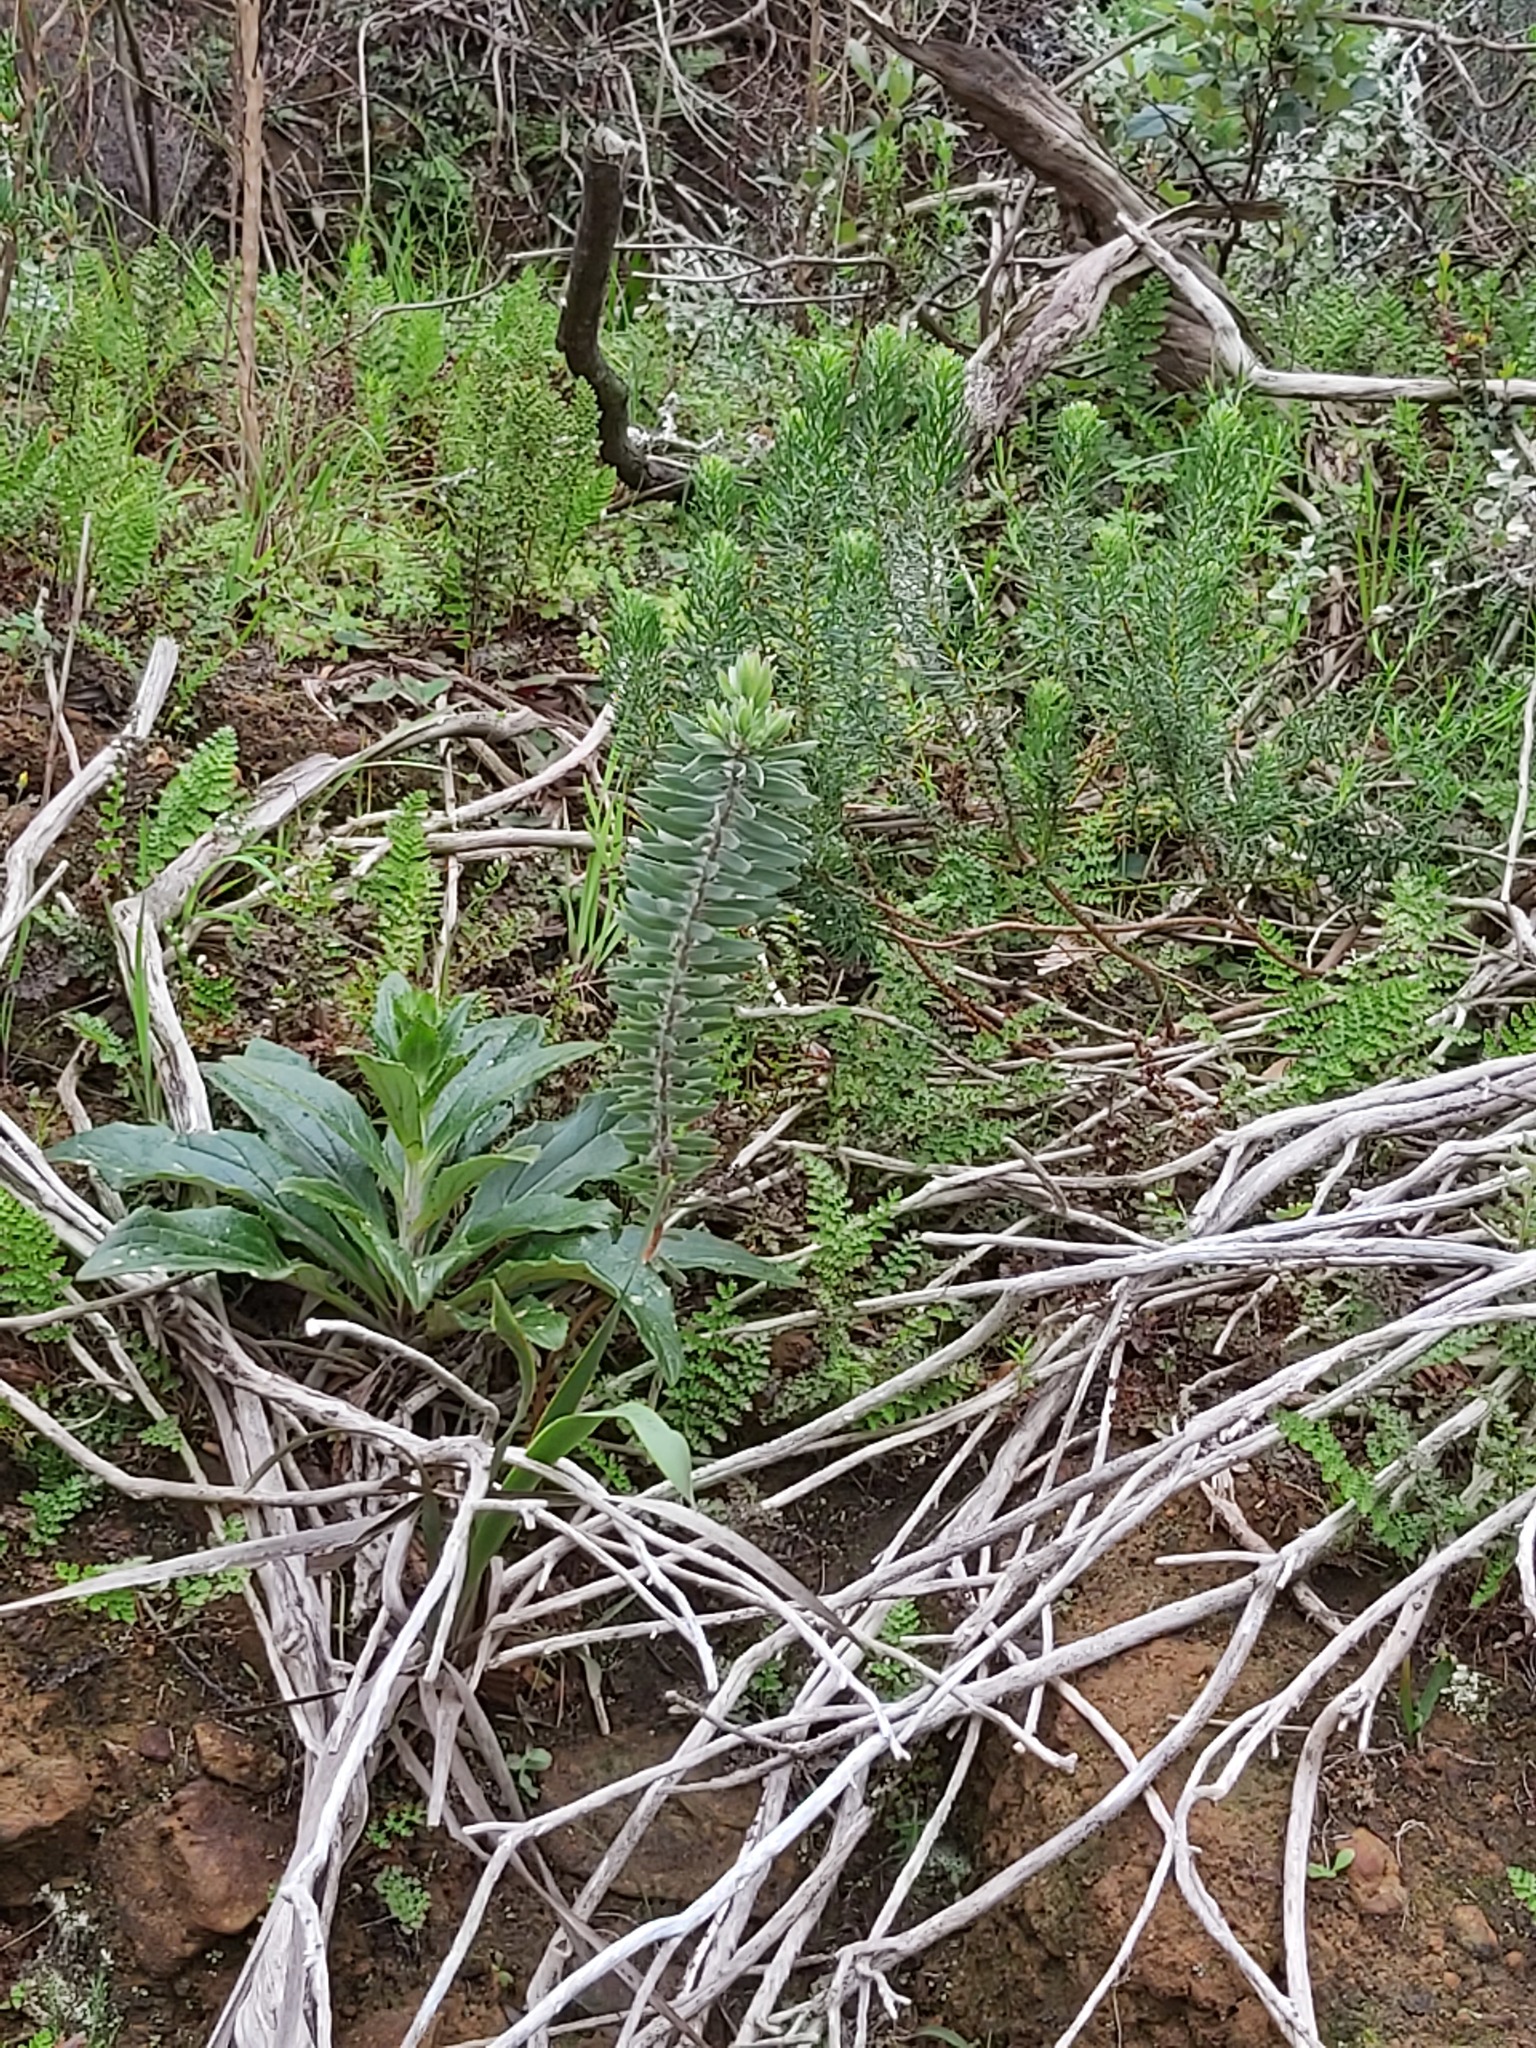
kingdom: Plantae
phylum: Tracheophyta
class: Magnoliopsida
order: Proteales
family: Proteaceae
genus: Leucadendron
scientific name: Leucadendron rubrum
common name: Spinning top
